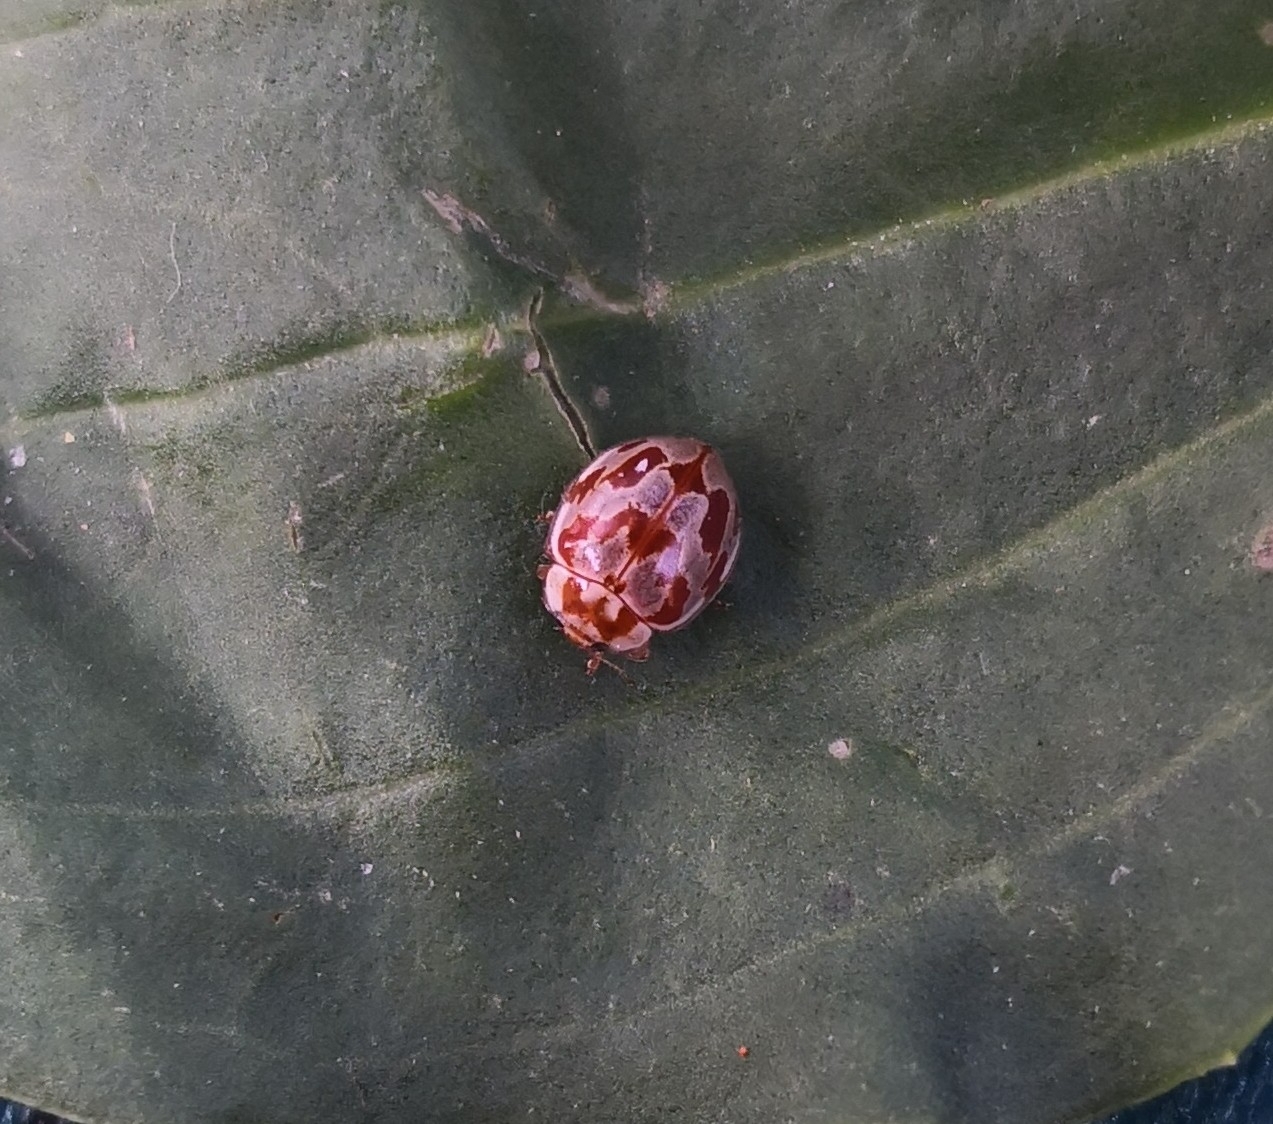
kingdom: Animalia
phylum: Arthropoda
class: Insecta
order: Coleoptera
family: Coccinellidae
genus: Myrrha
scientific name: Myrrha octodecimguttata
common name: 18-spot ladybird
